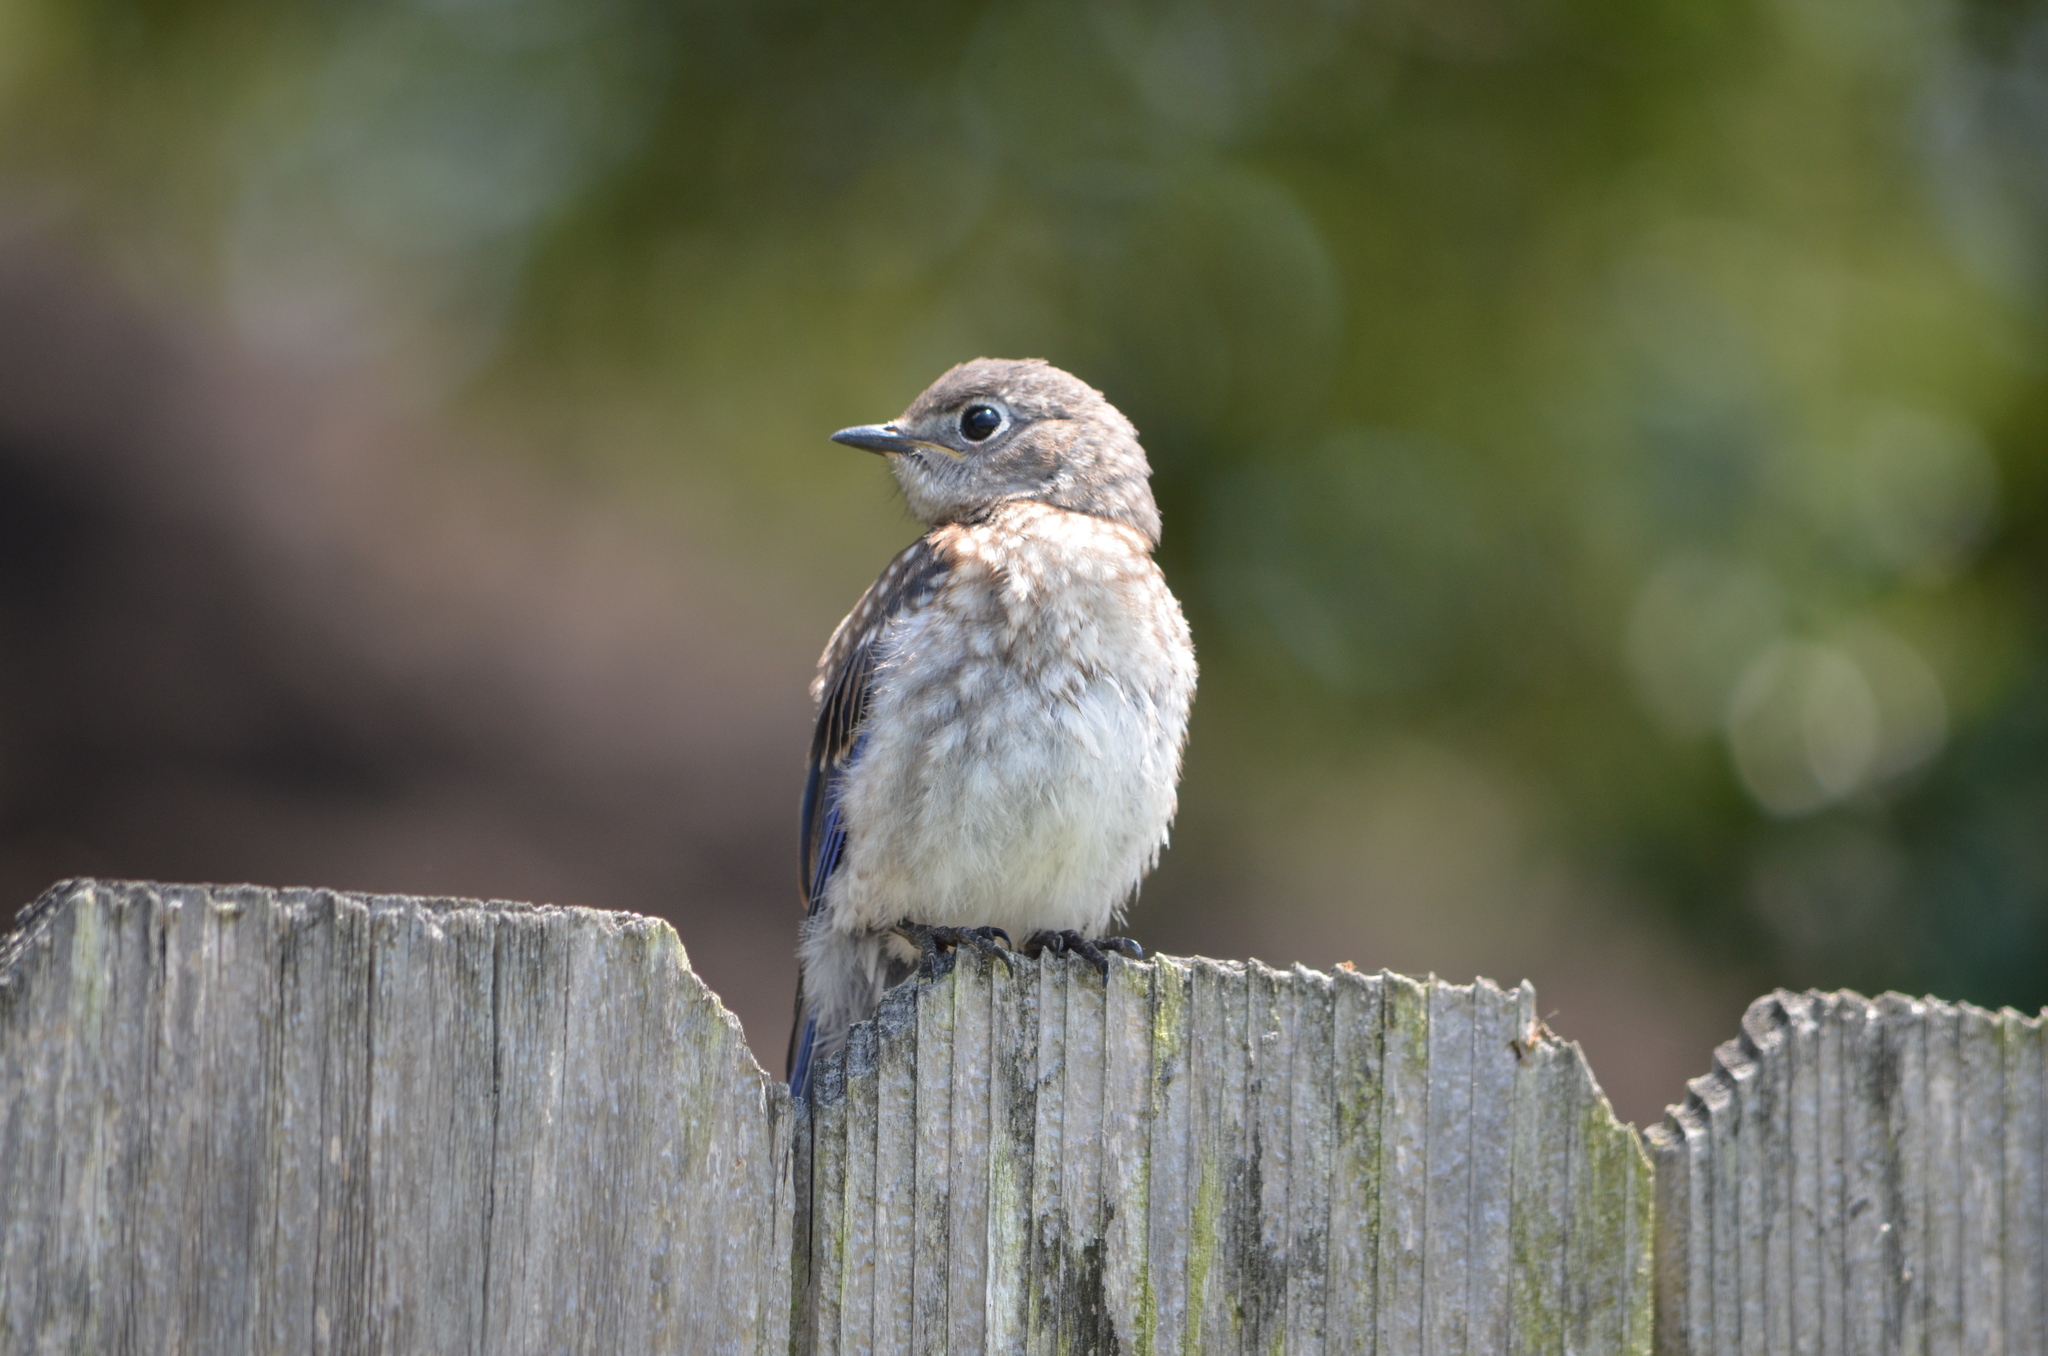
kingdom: Animalia
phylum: Chordata
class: Aves
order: Passeriformes
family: Turdidae
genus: Sialia
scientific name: Sialia sialis
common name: Eastern bluebird
